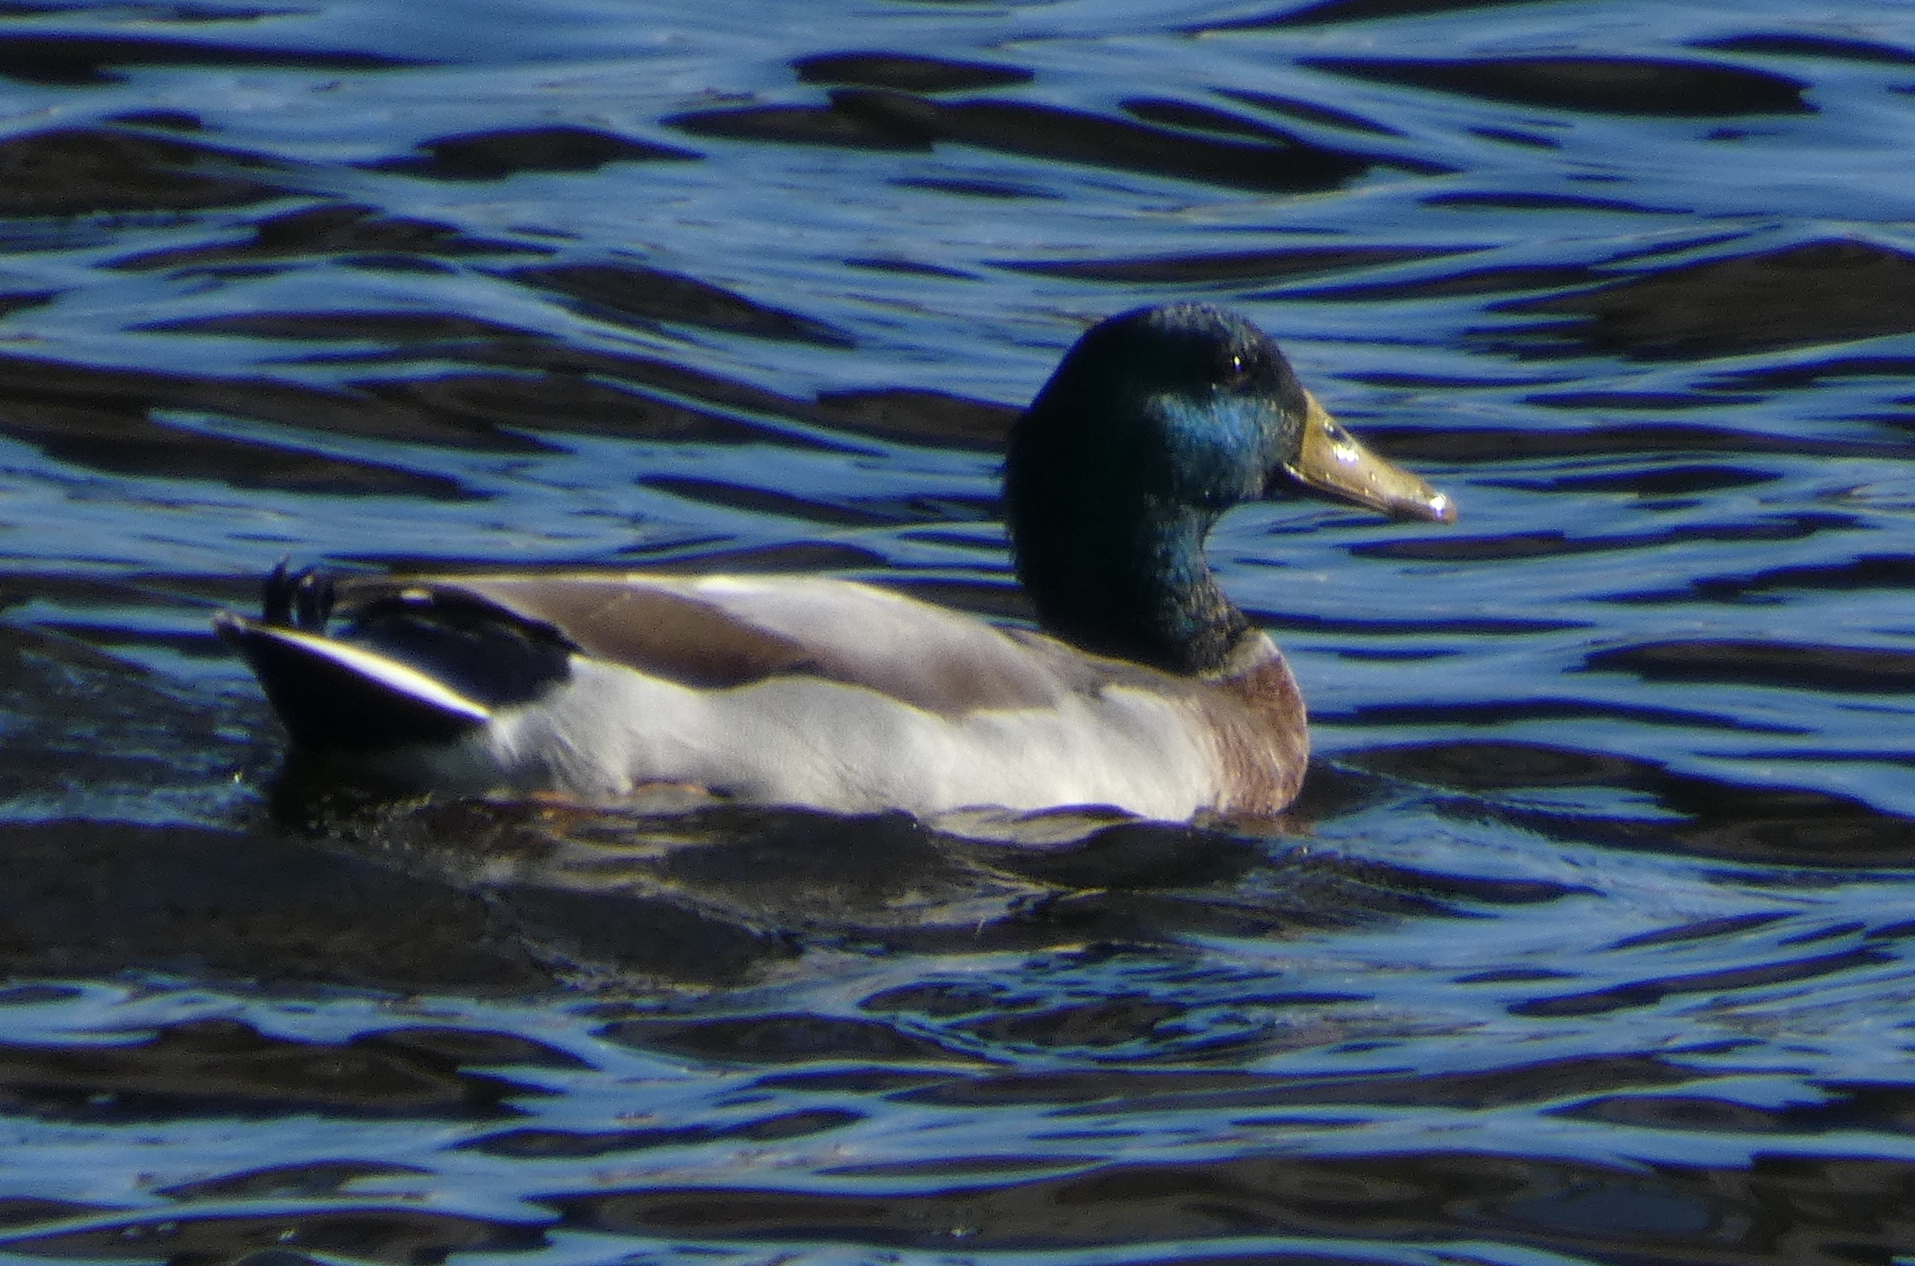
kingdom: Animalia
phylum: Chordata
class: Aves
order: Anseriformes
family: Anatidae
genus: Anas
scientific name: Anas platyrhynchos
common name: Mallard
